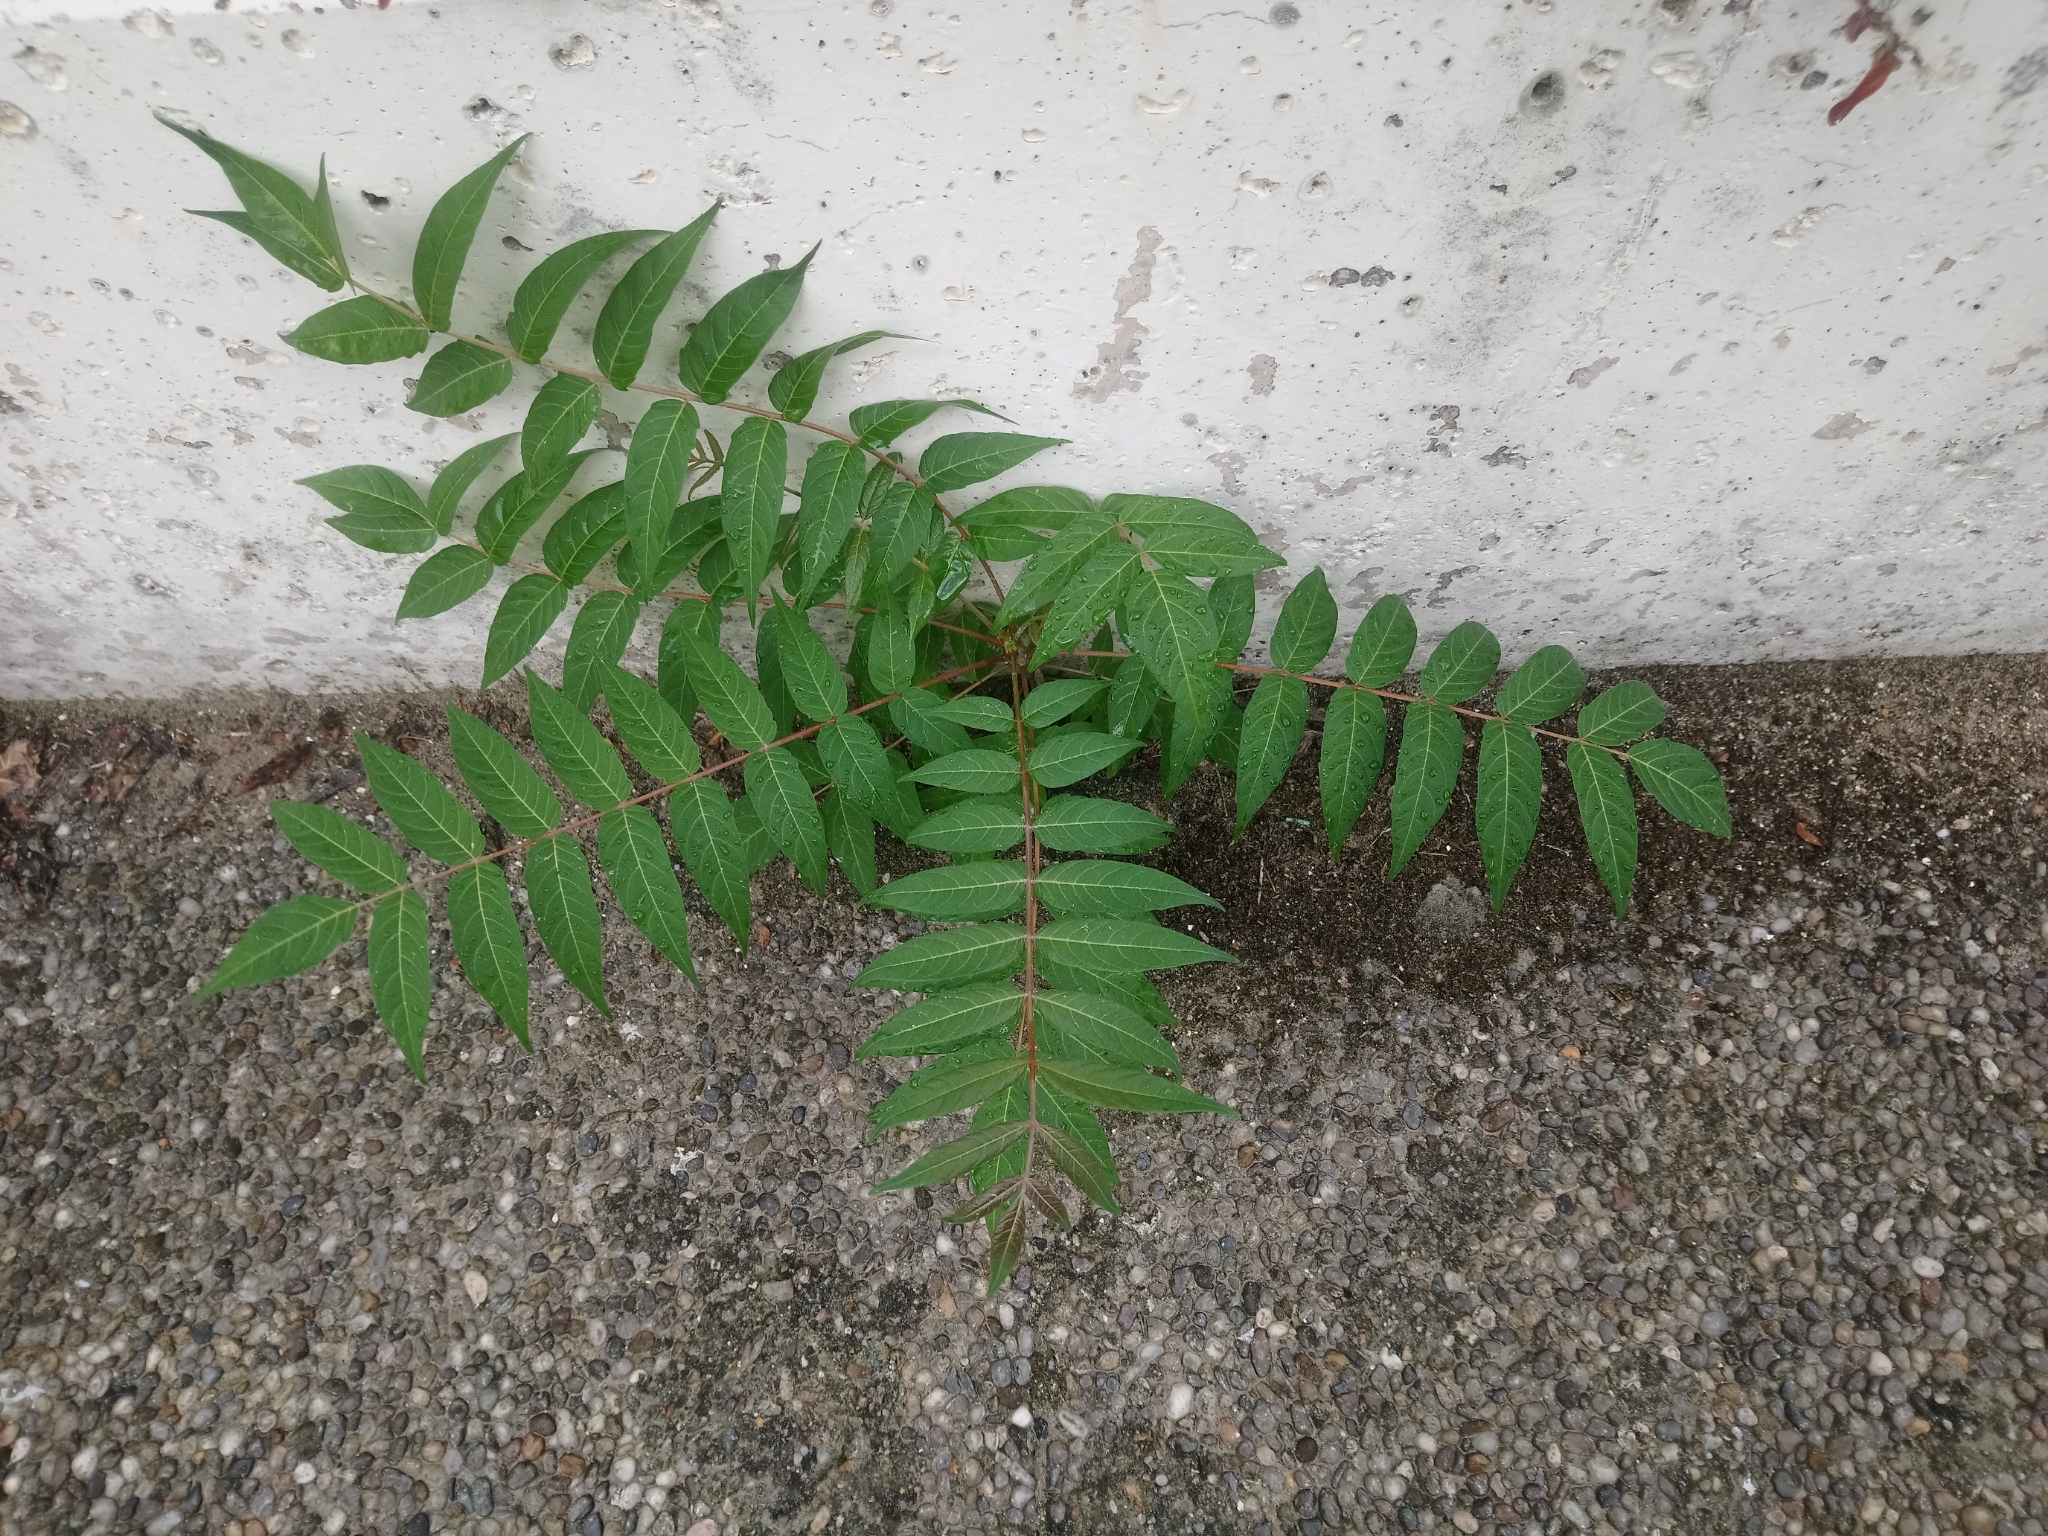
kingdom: Plantae
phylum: Tracheophyta
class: Magnoliopsida
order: Sapindales
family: Simaroubaceae
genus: Ailanthus
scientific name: Ailanthus altissima
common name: Tree-of-heaven
